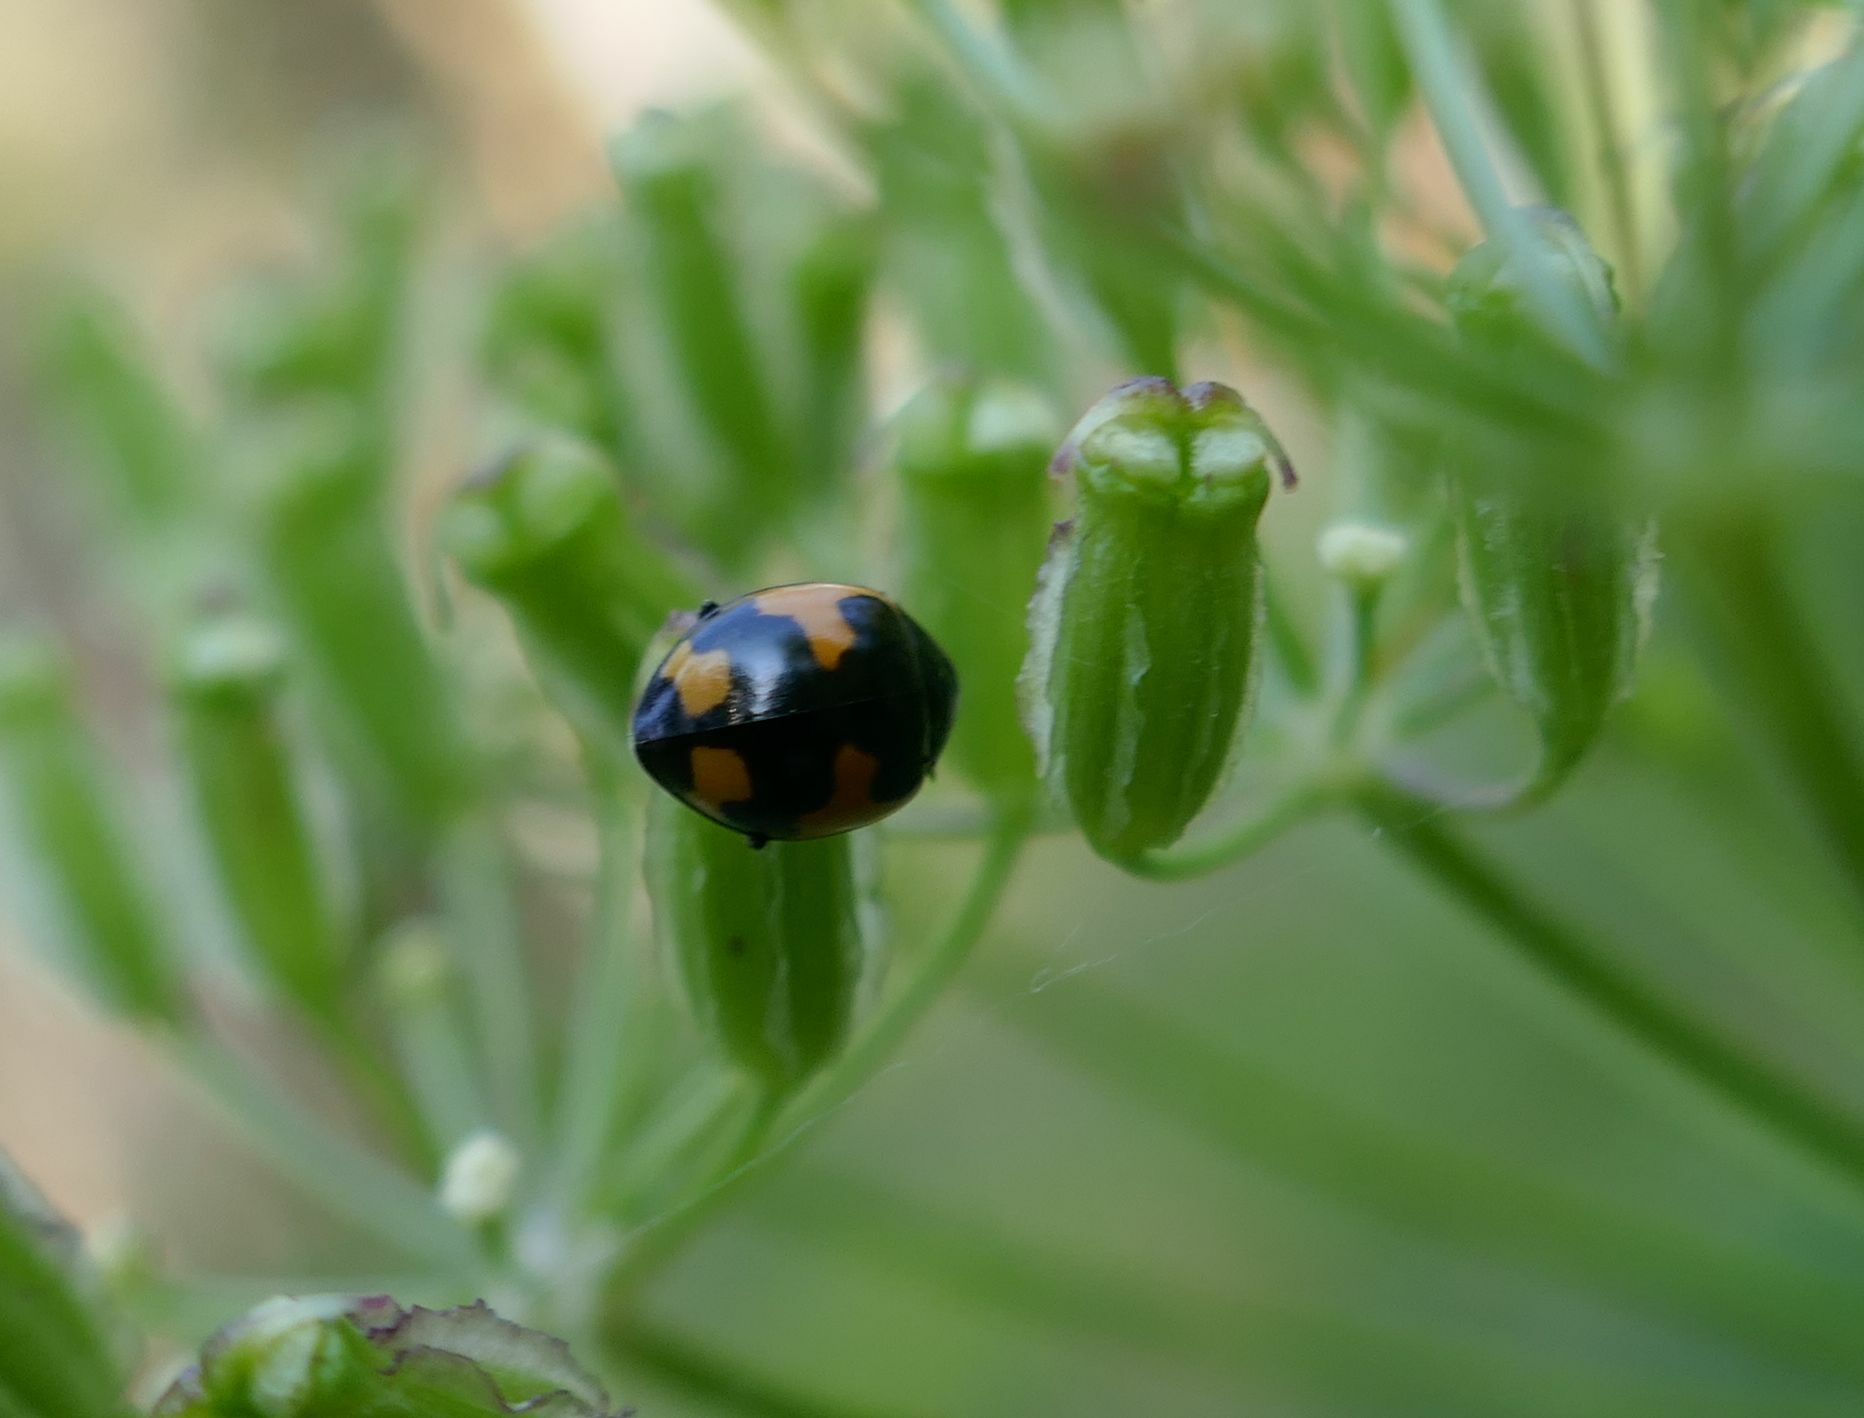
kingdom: Animalia
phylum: Arthropoda
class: Insecta
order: Coleoptera
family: Coccinellidae
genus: Ceratomegilla
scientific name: Ceratomegilla alpina
